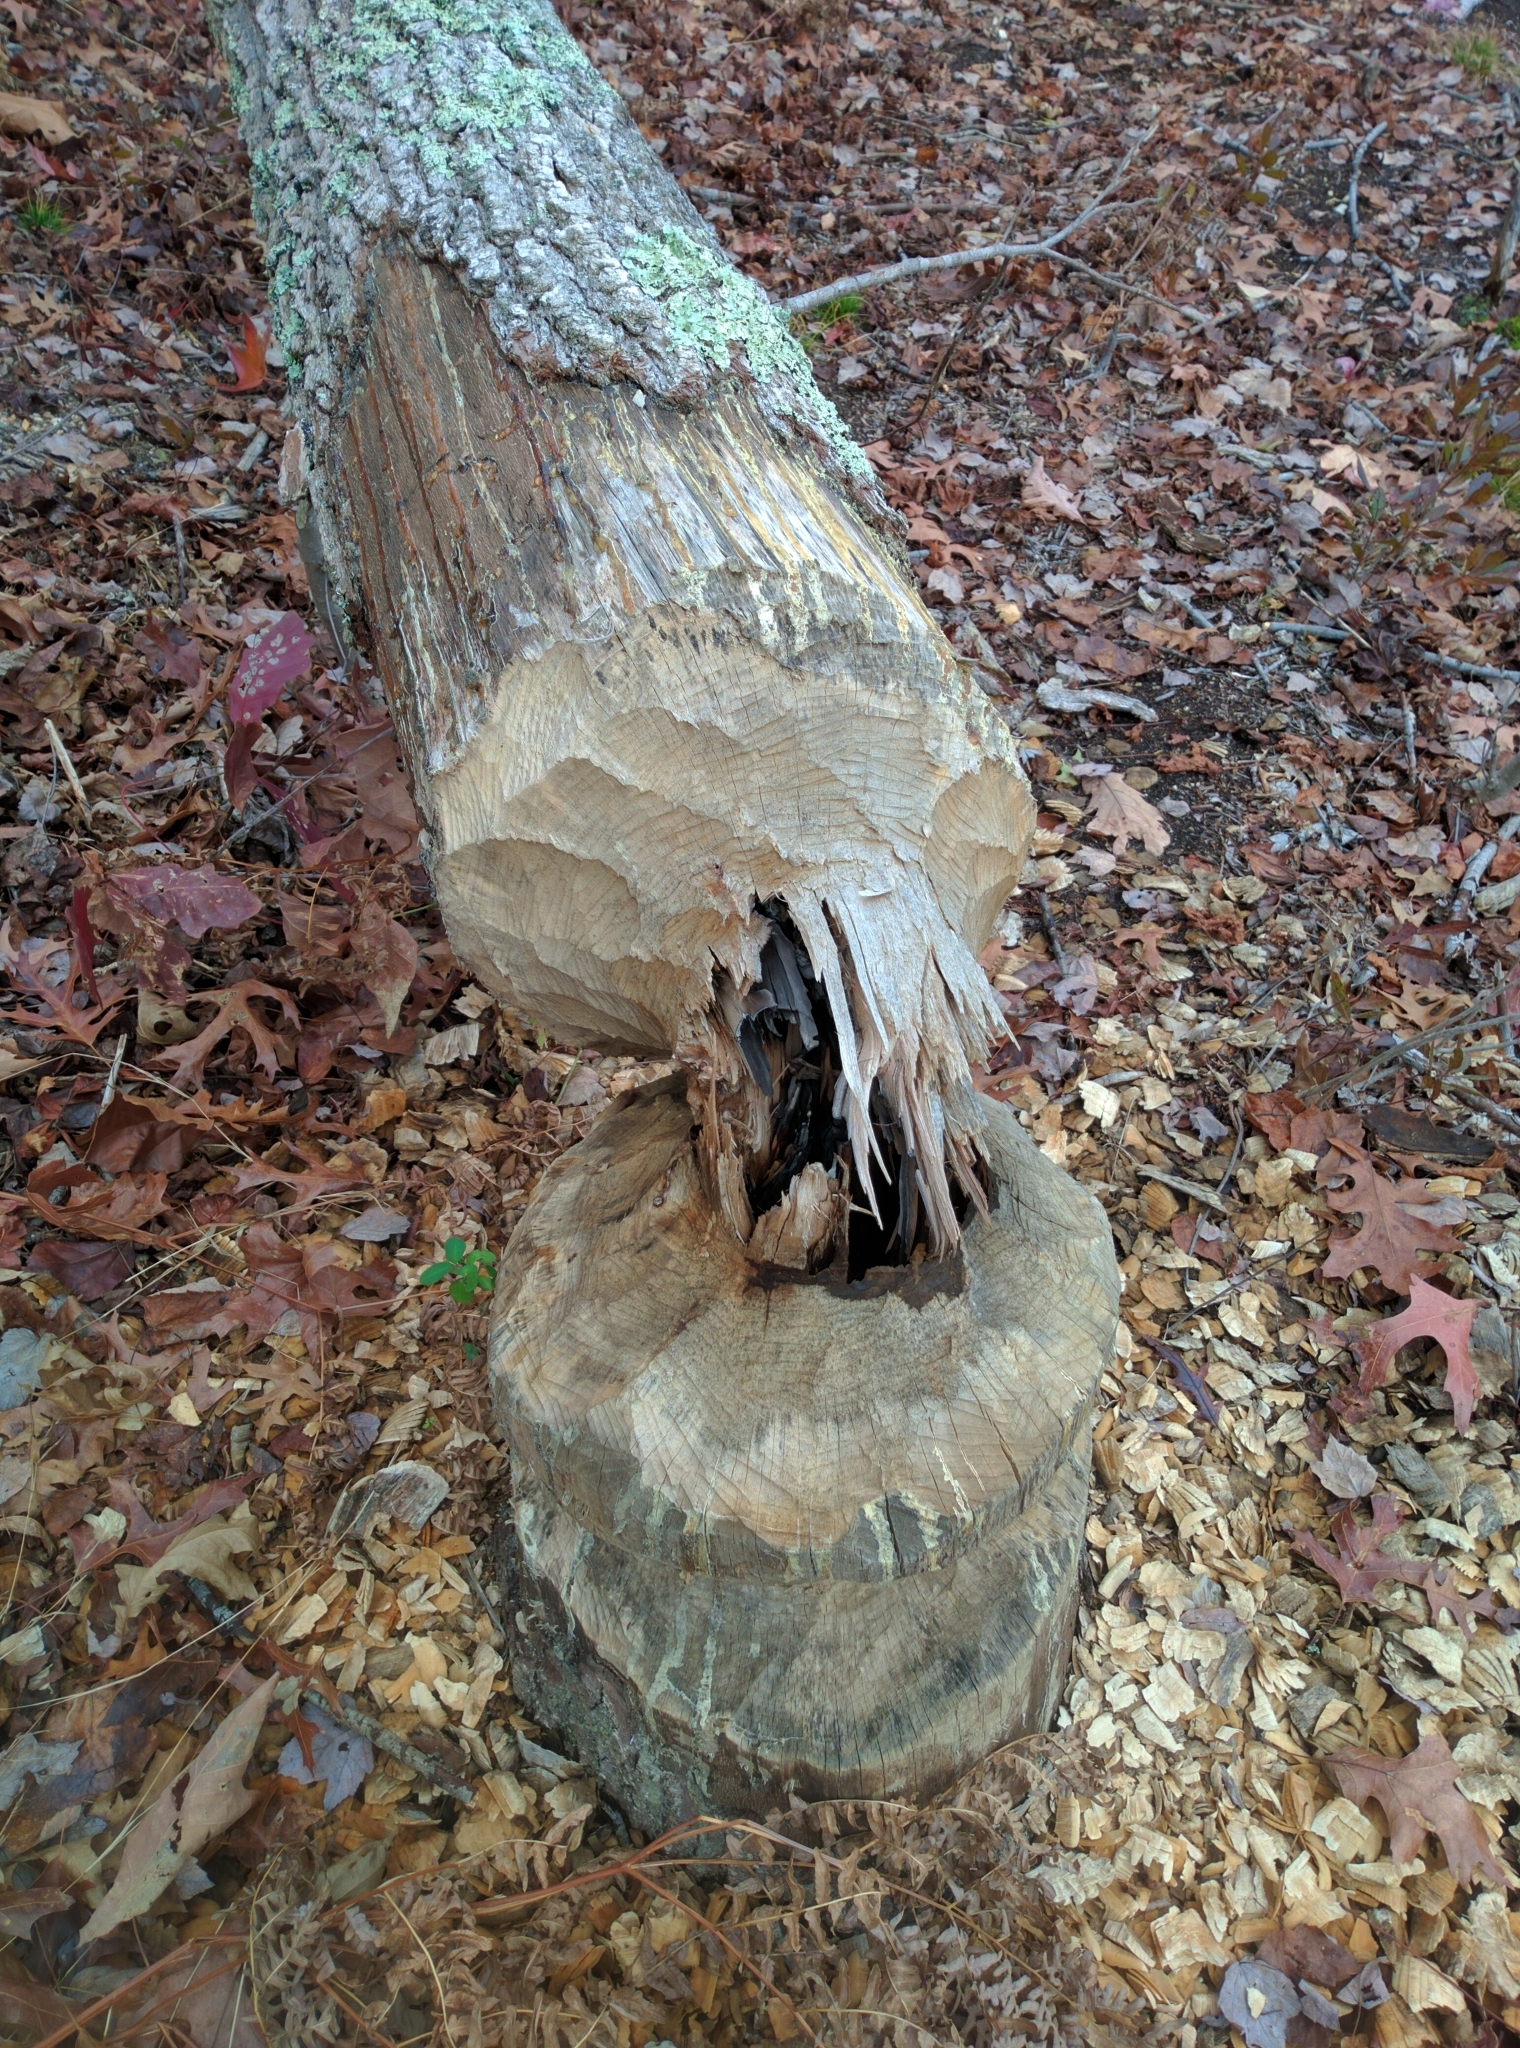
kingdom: Animalia
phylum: Chordata
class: Mammalia
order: Rodentia
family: Castoridae
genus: Castor
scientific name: Castor canadensis
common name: American beaver
